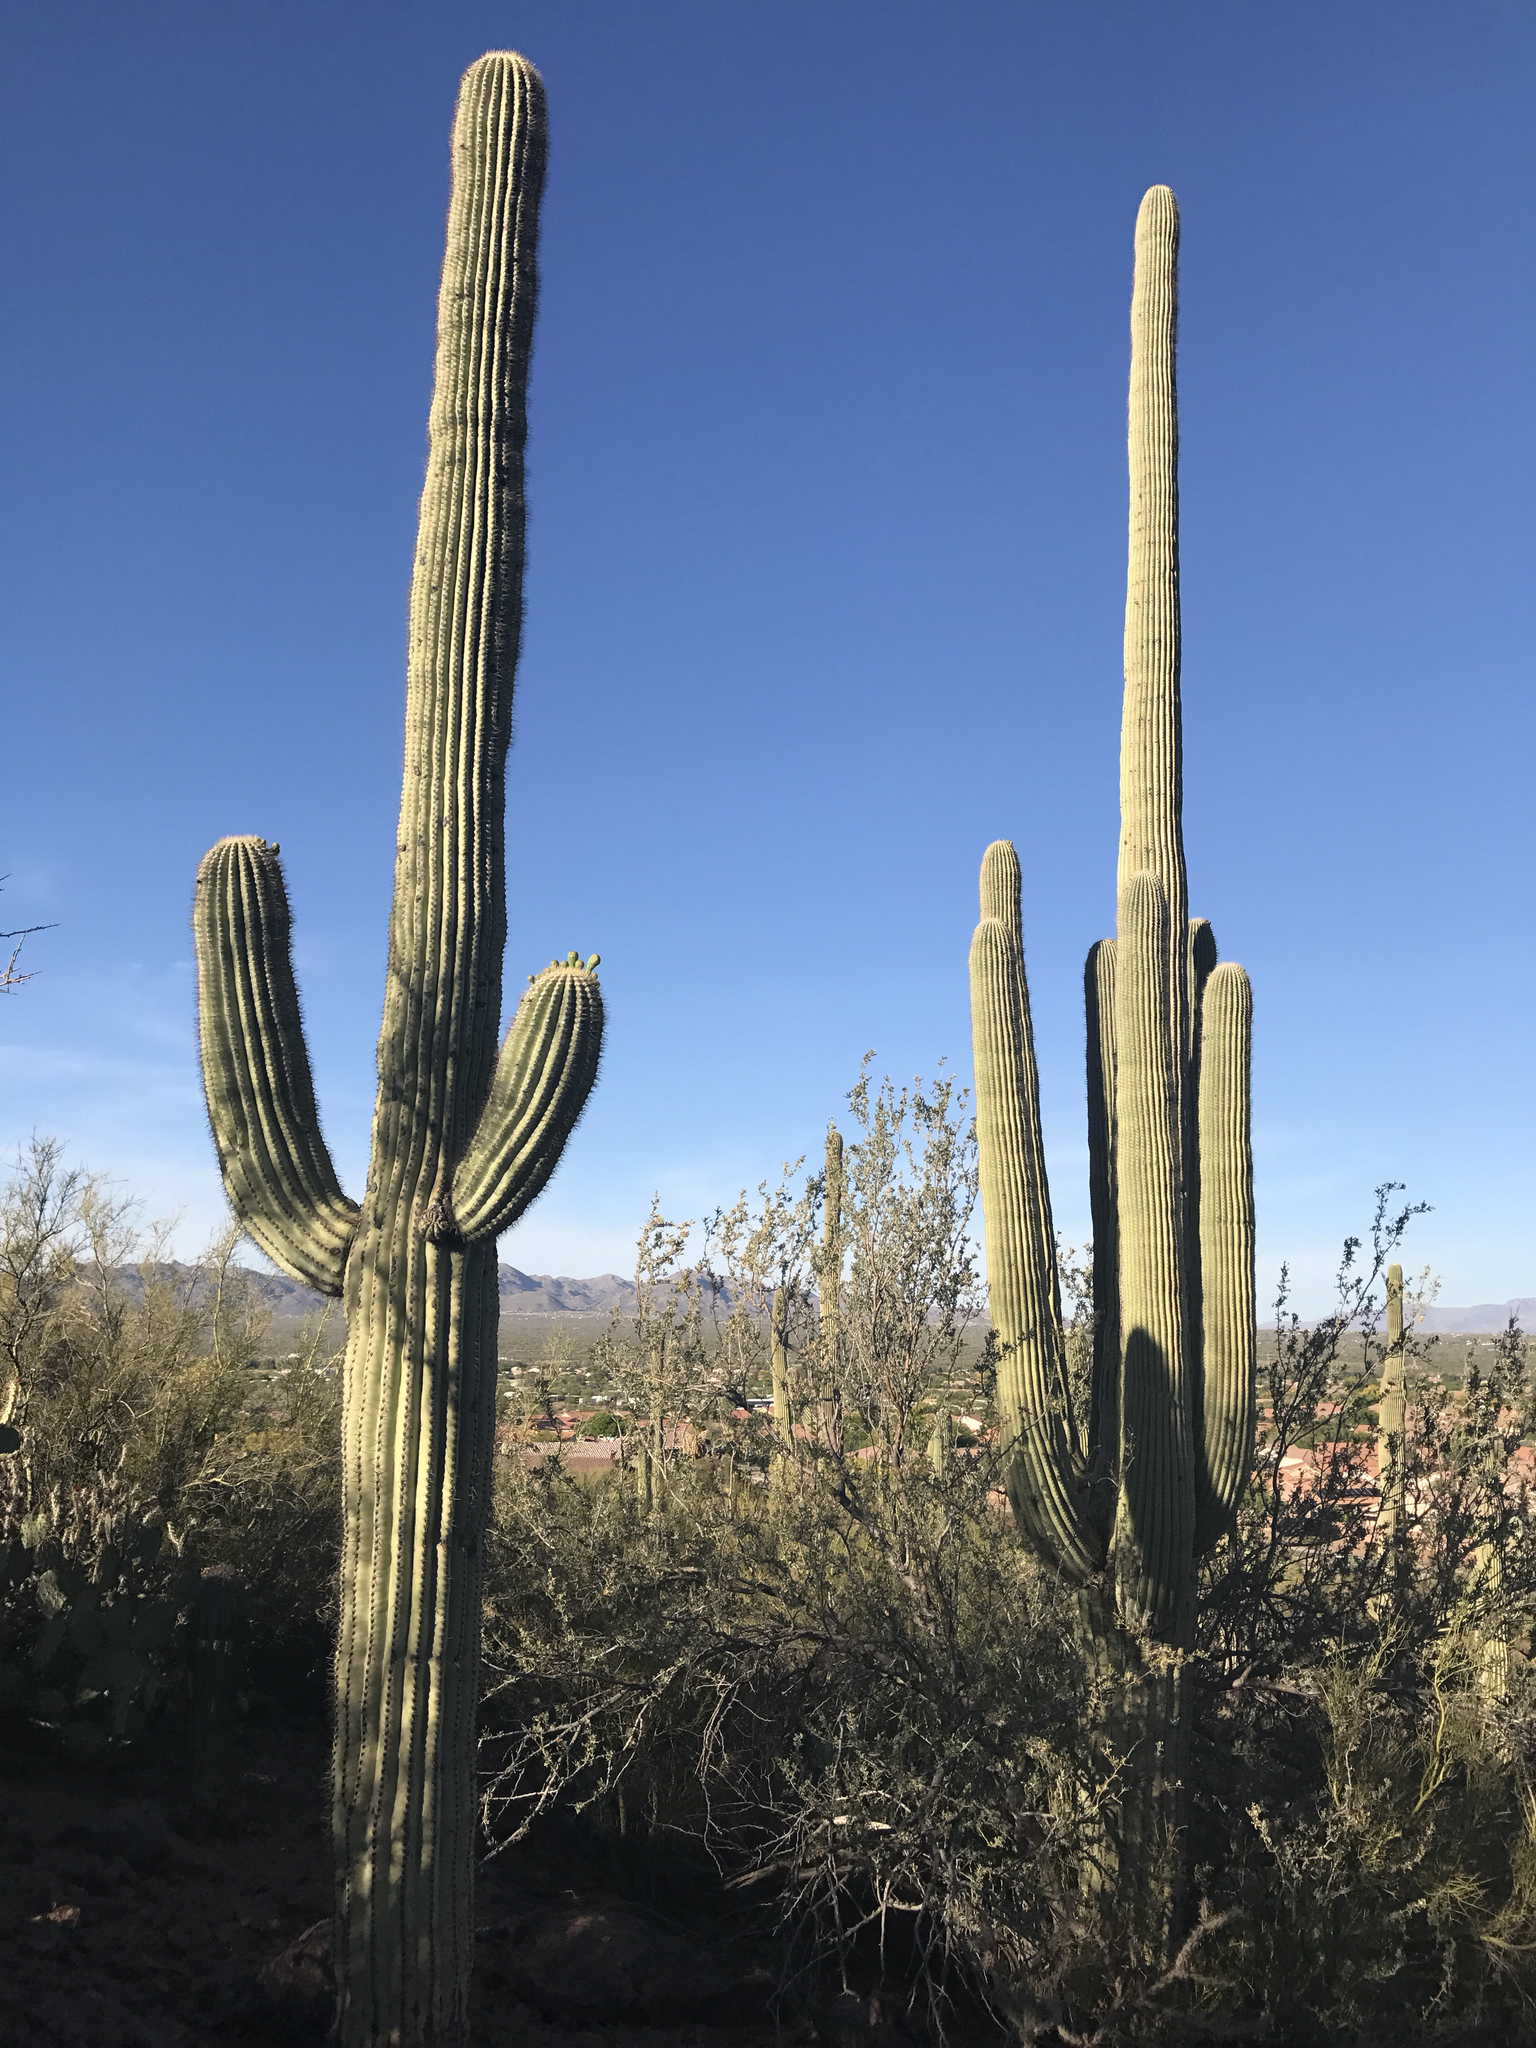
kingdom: Plantae
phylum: Tracheophyta
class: Magnoliopsida
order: Caryophyllales
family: Cactaceae
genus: Carnegiea
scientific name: Carnegiea gigantea
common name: Saguaro
